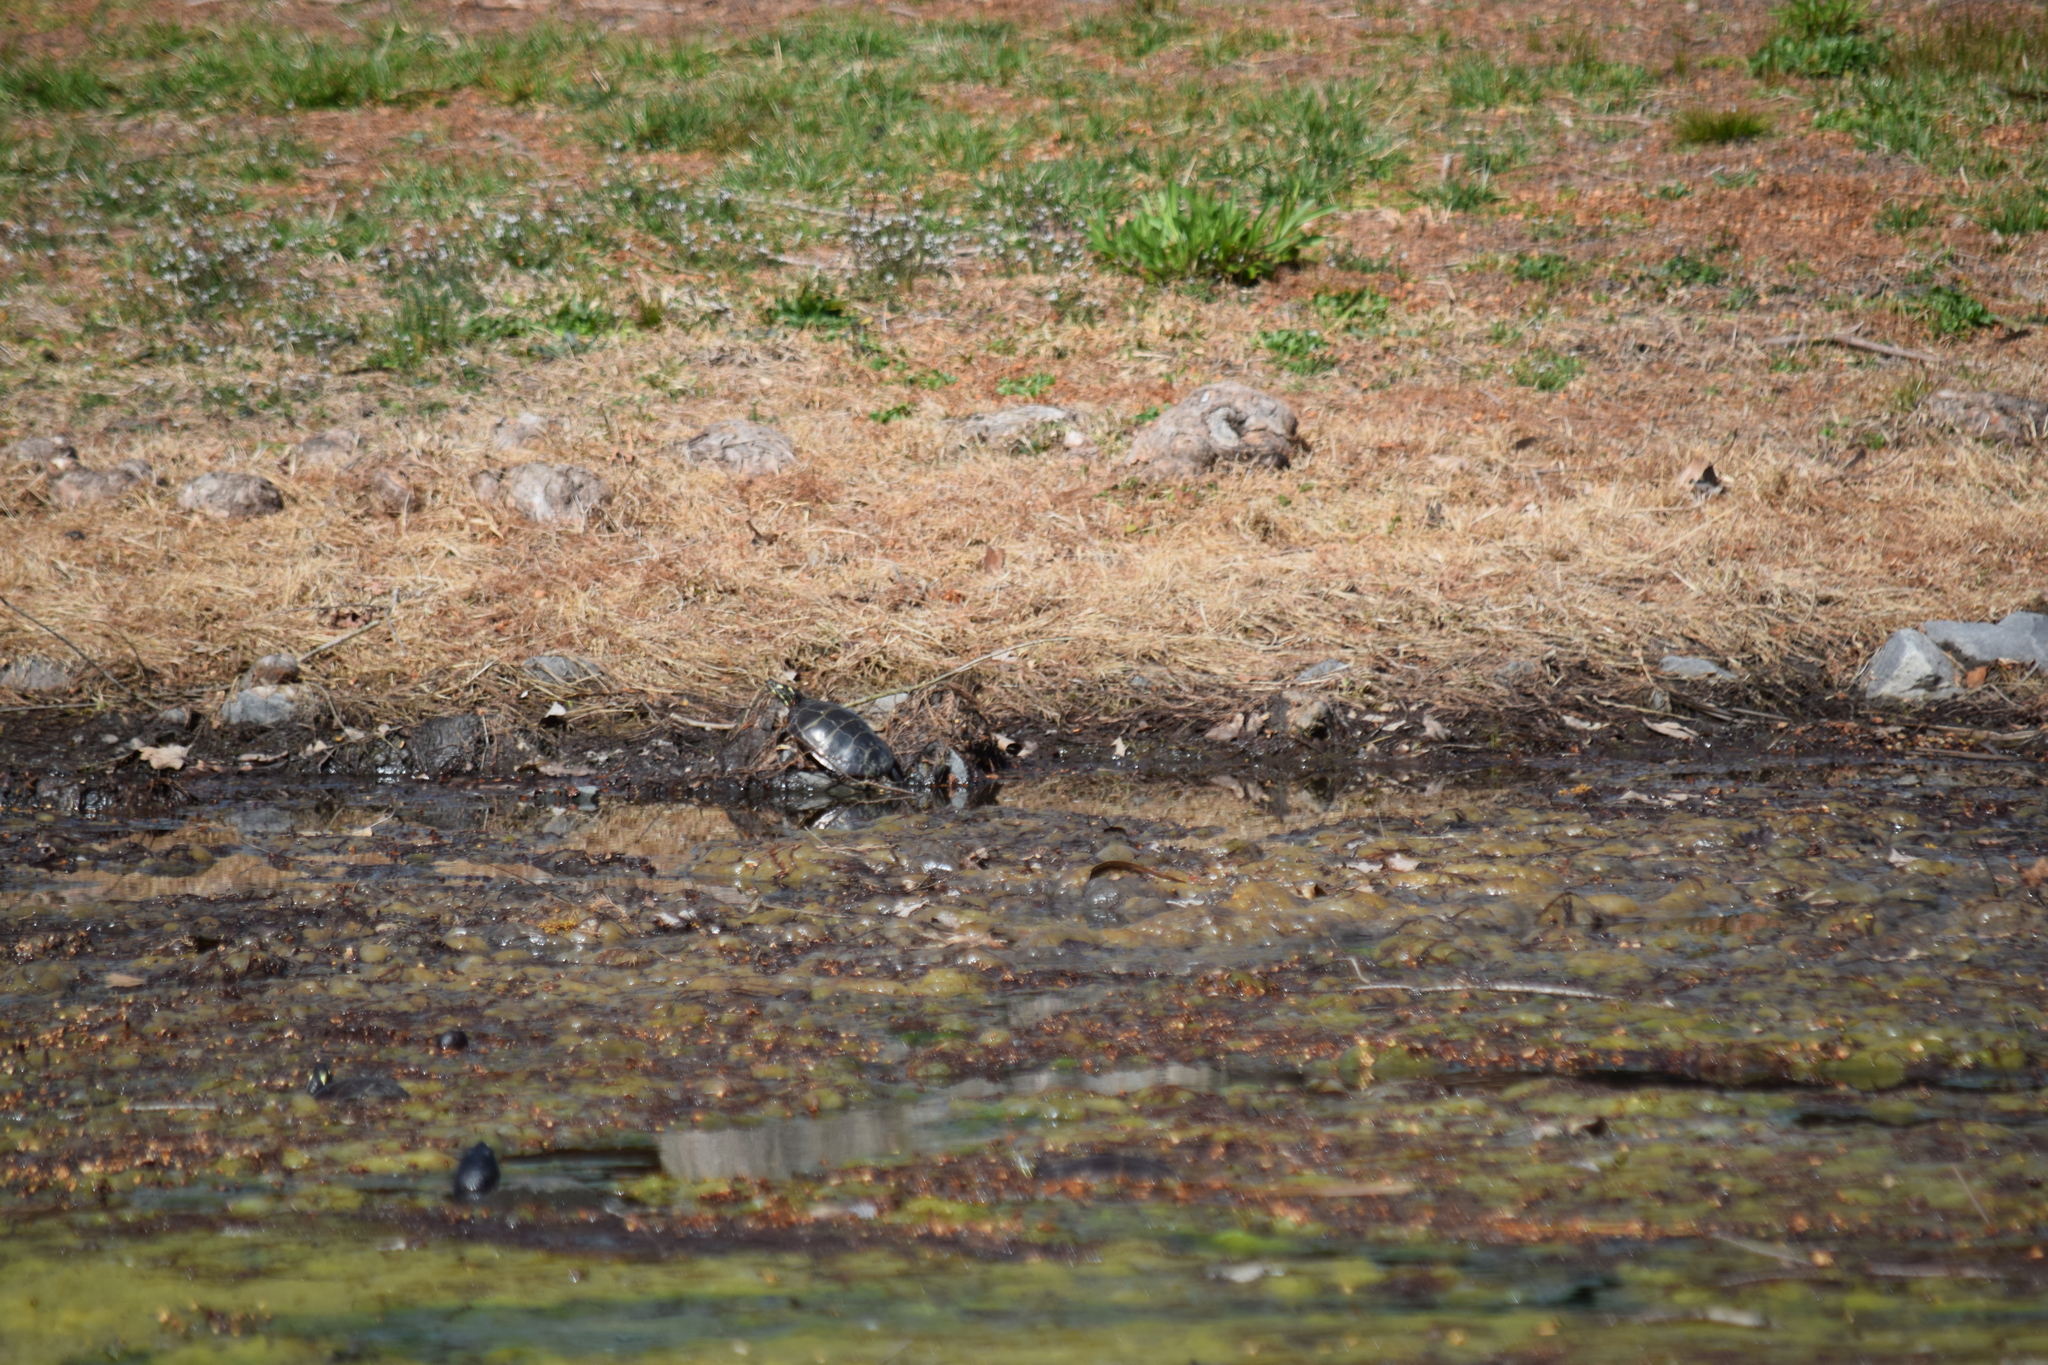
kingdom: Animalia
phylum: Chordata
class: Testudines
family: Emydidae
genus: Chrysemys
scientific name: Chrysemys picta
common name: Painted turtle
